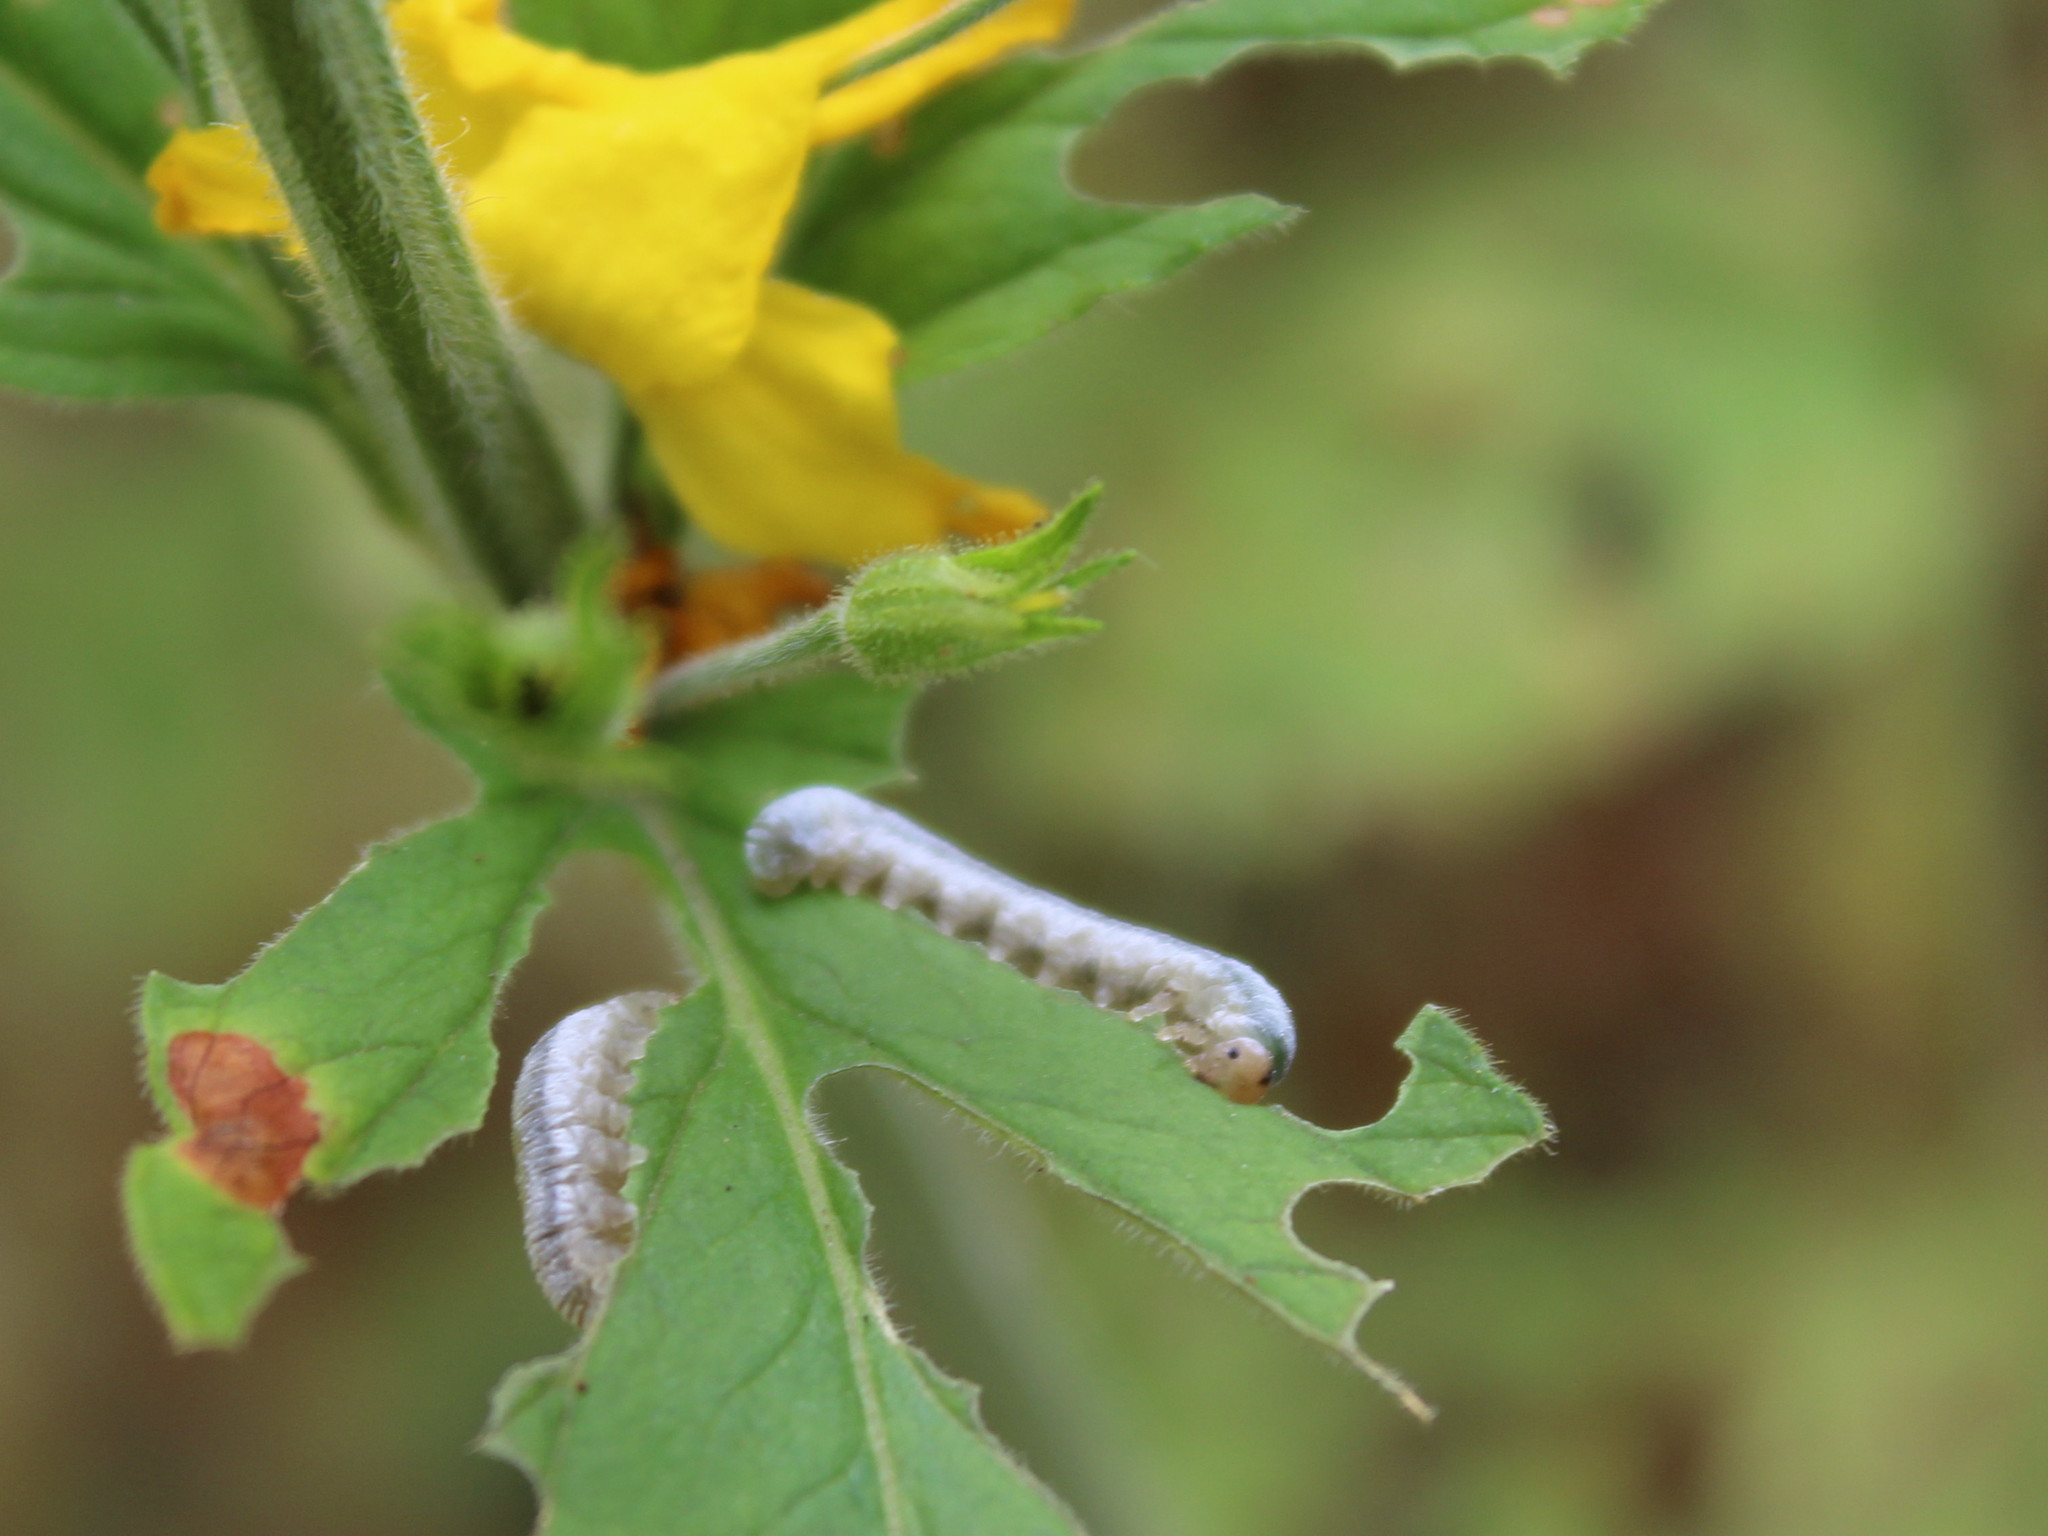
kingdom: Animalia
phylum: Arthropoda
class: Insecta
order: Hymenoptera
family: Tenthredinidae
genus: Monostegia
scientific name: Monostegia abdominalis
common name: Tenthredid wasp
